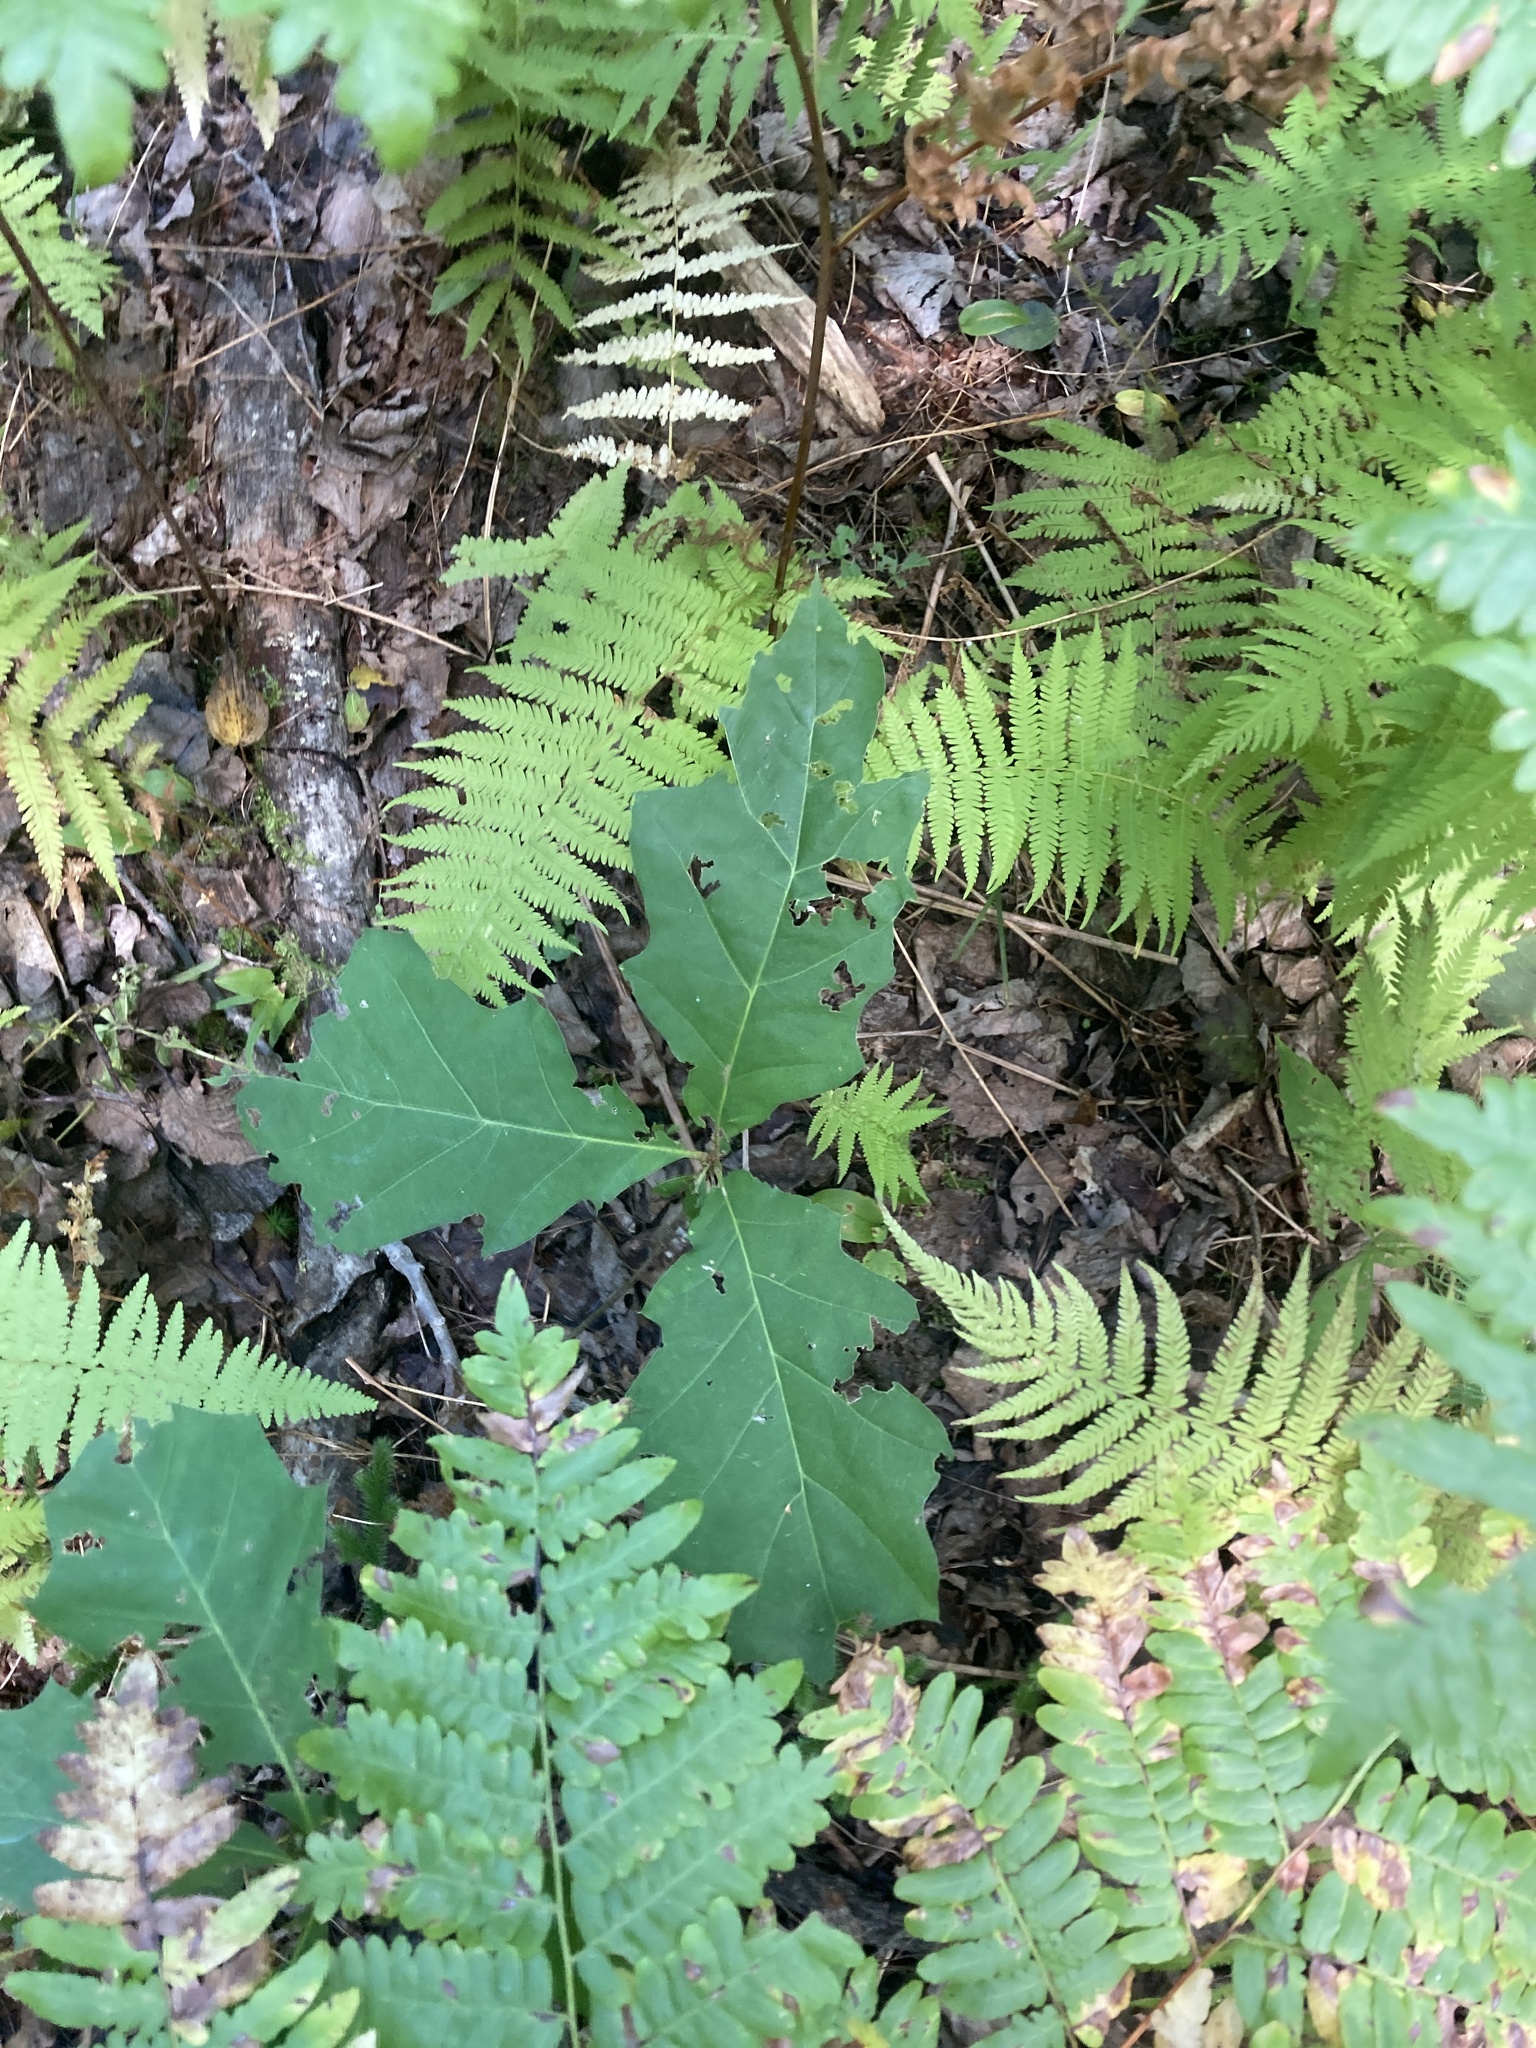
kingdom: Plantae
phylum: Tracheophyta
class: Magnoliopsida
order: Fagales
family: Fagaceae
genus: Quercus
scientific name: Quercus rubra
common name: Red oak
